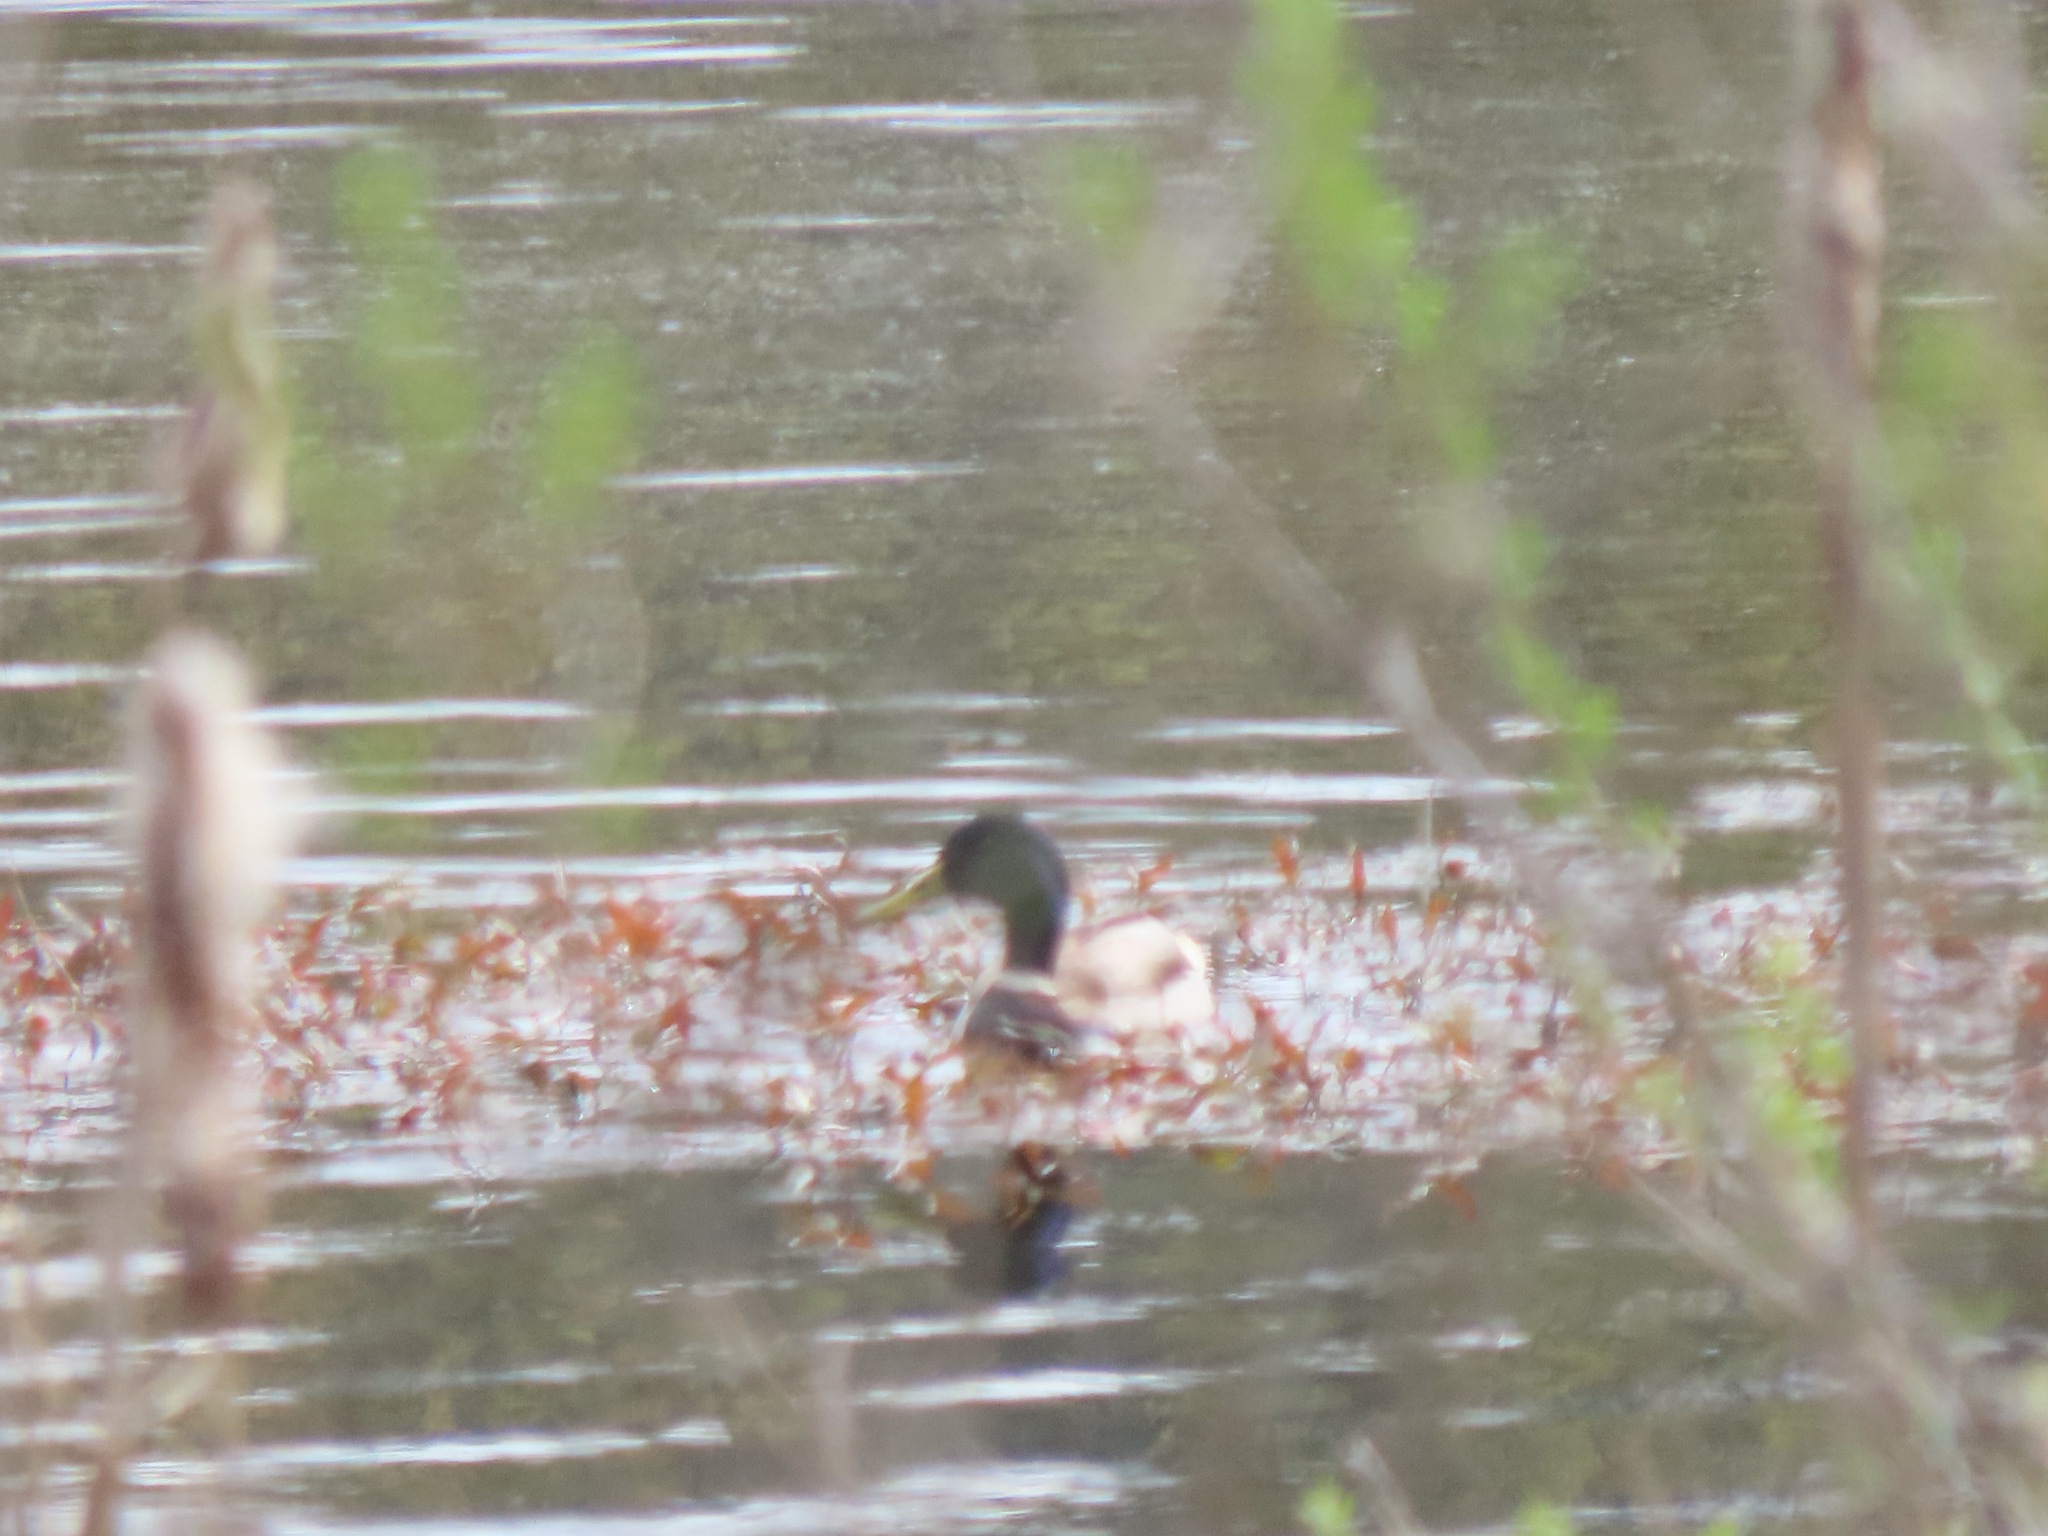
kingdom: Animalia
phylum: Chordata
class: Aves
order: Anseriformes
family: Anatidae
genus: Anas
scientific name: Anas platyrhynchos
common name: Mallard
